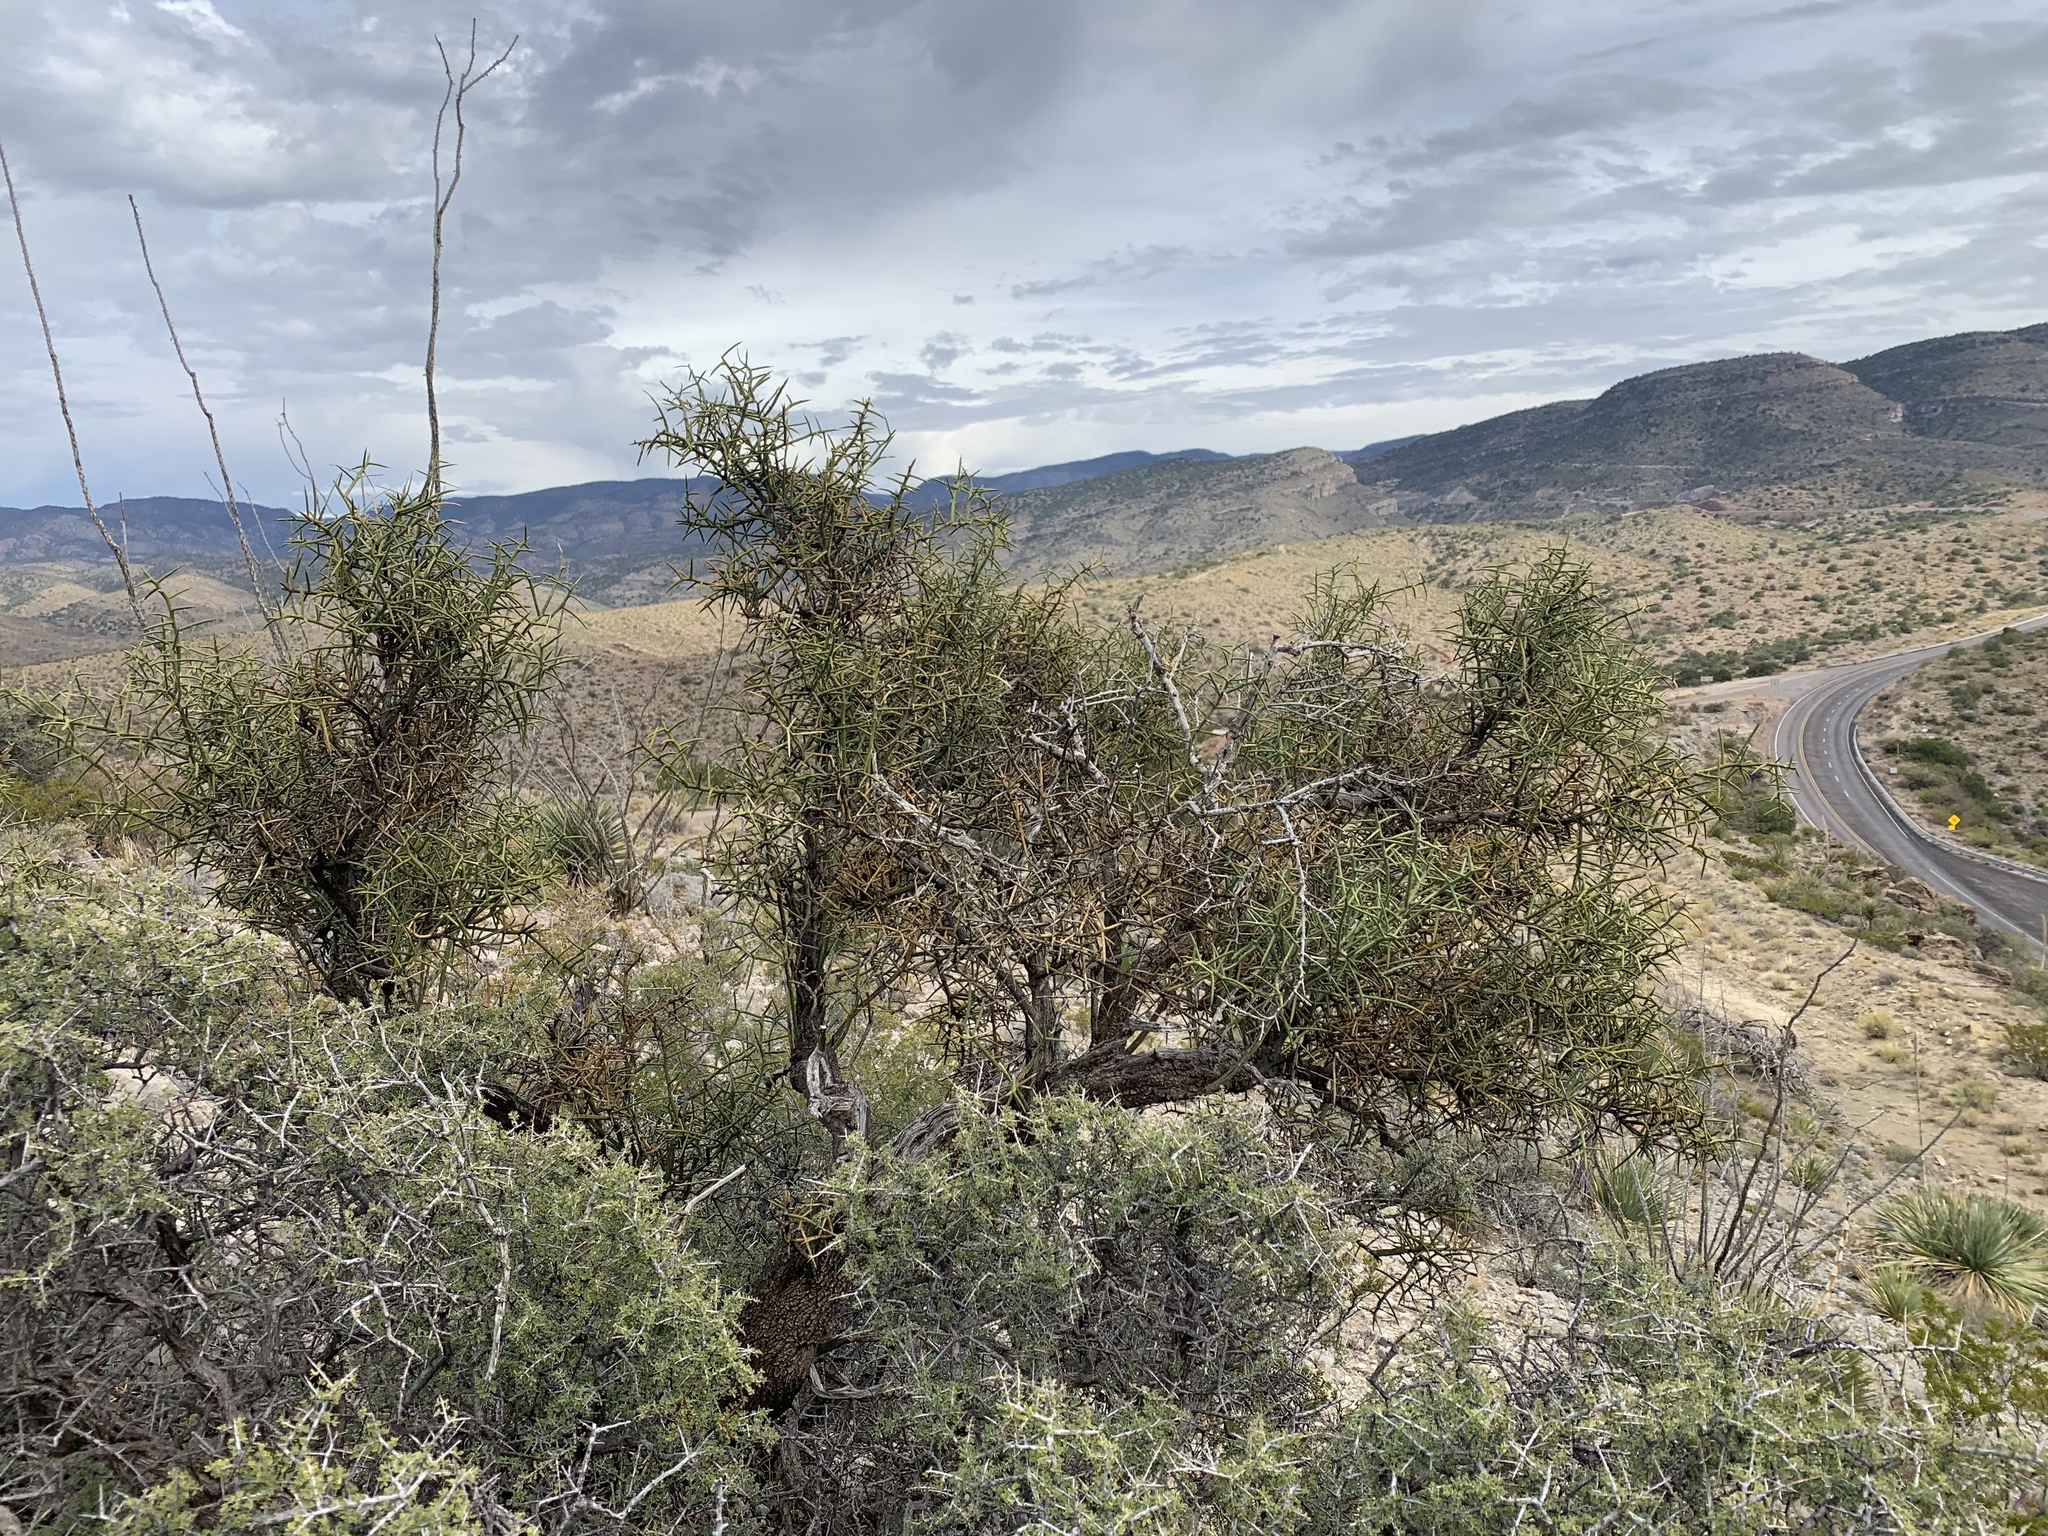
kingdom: Plantae
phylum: Tracheophyta
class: Magnoliopsida
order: Brassicales
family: Koeberliniaceae
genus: Koeberlinia
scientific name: Koeberlinia spinosa
